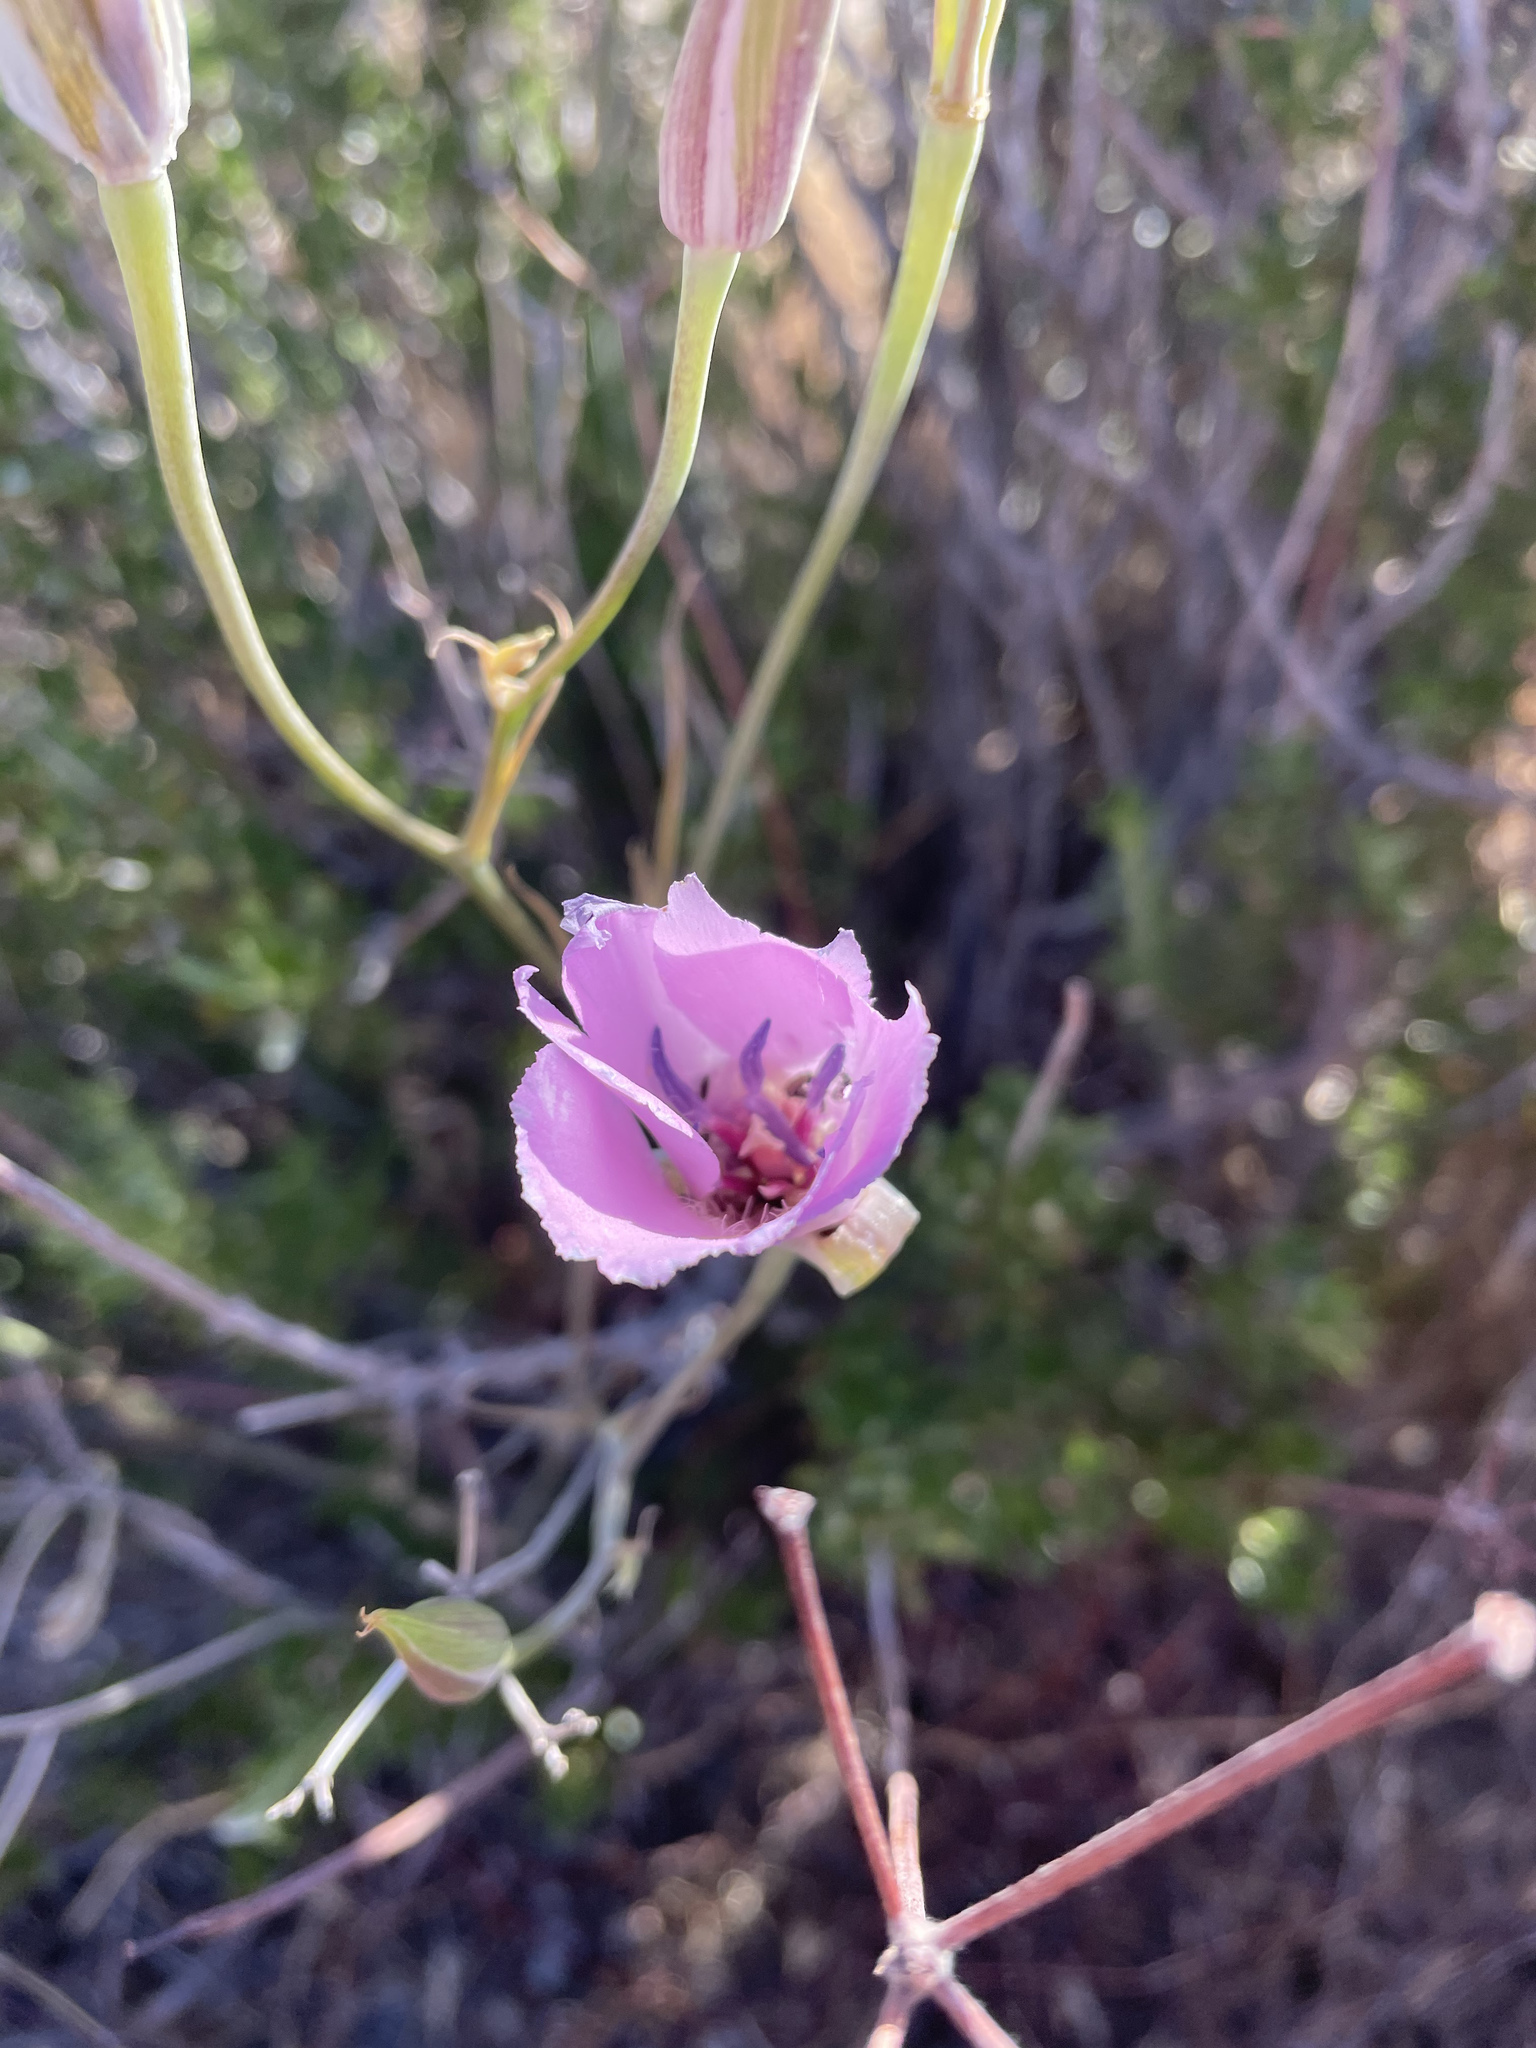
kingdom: Plantae
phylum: Tracheophyta
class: Liliopsida
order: Liliales
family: Liliaceae
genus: Calochortus
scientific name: Calochortus splendens
